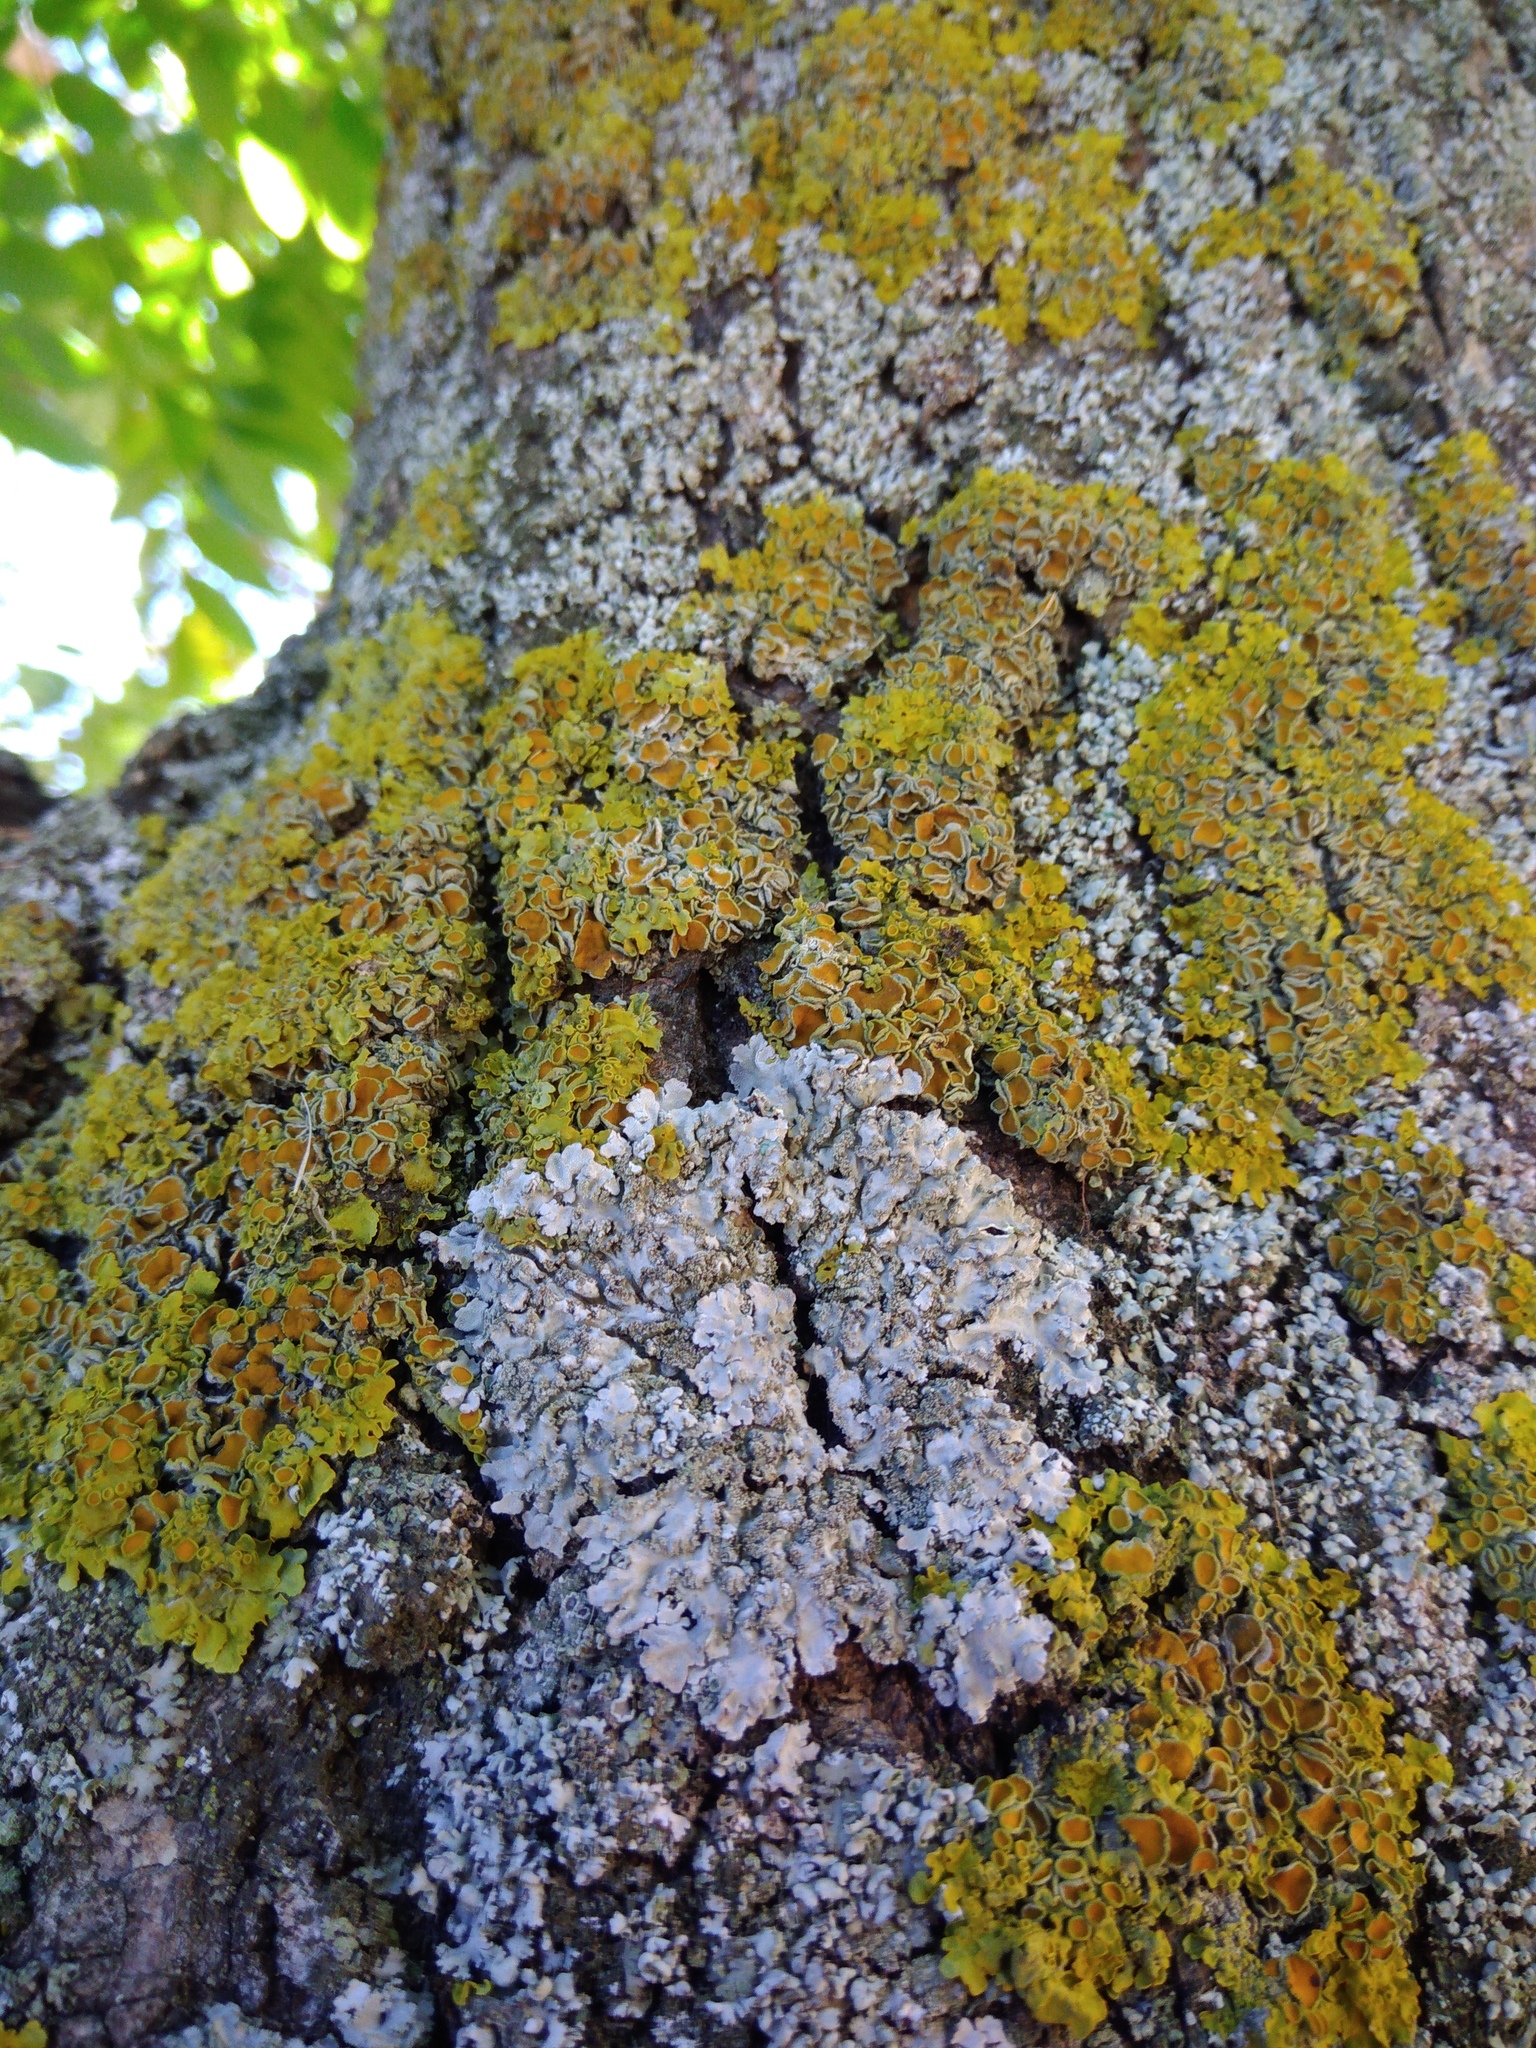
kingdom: Fungi
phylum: Ascomycota
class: Lecanoromycetes
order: Caliciales
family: Physciaceae
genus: Physconia
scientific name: Physconia enteroxantha
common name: Yellow-edged frost lichen
